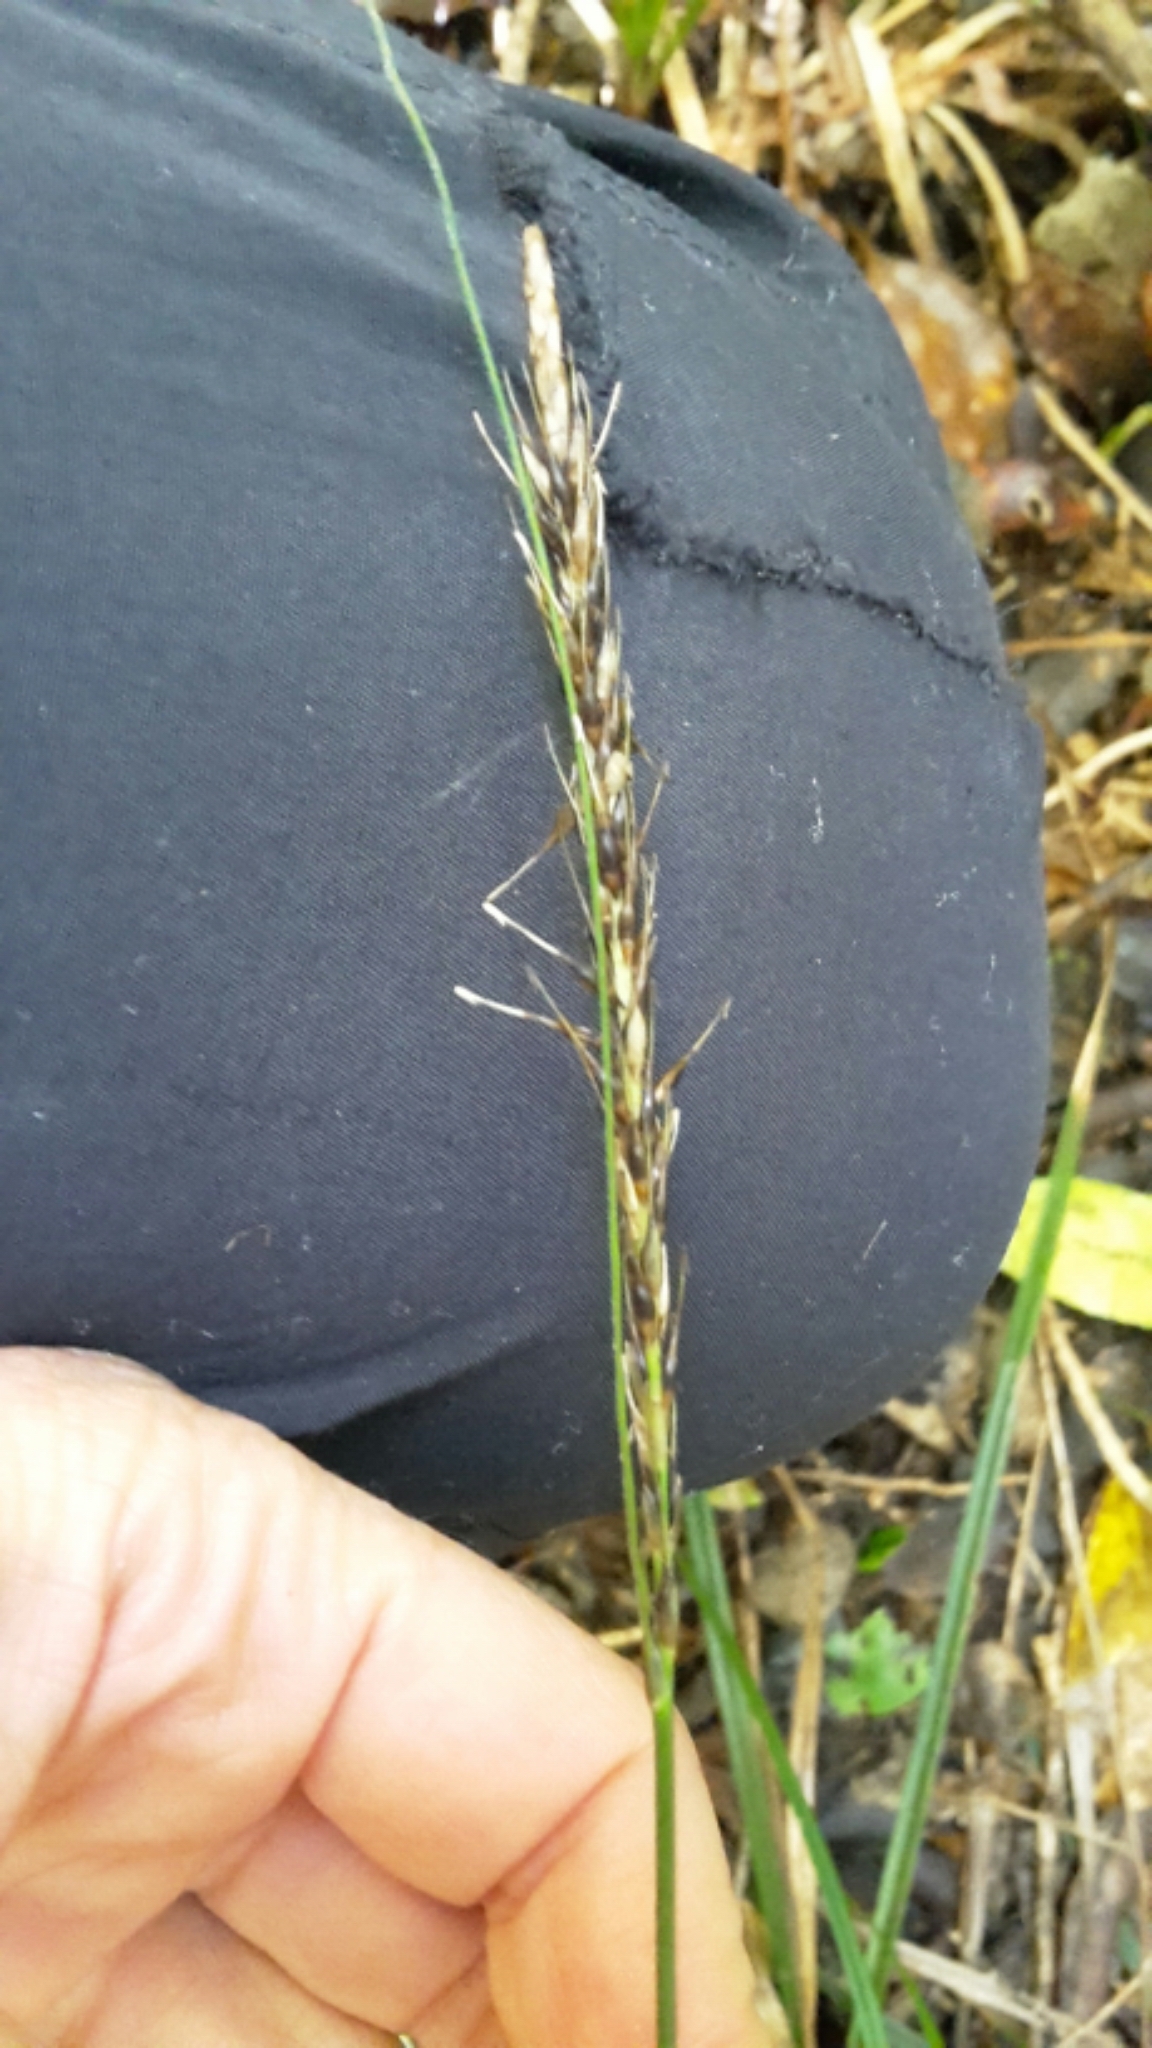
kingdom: Plantae
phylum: Tracheophyta
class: Liliopsida
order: Poales
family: Cyperaceae
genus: Carex
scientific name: Carex uncinata
